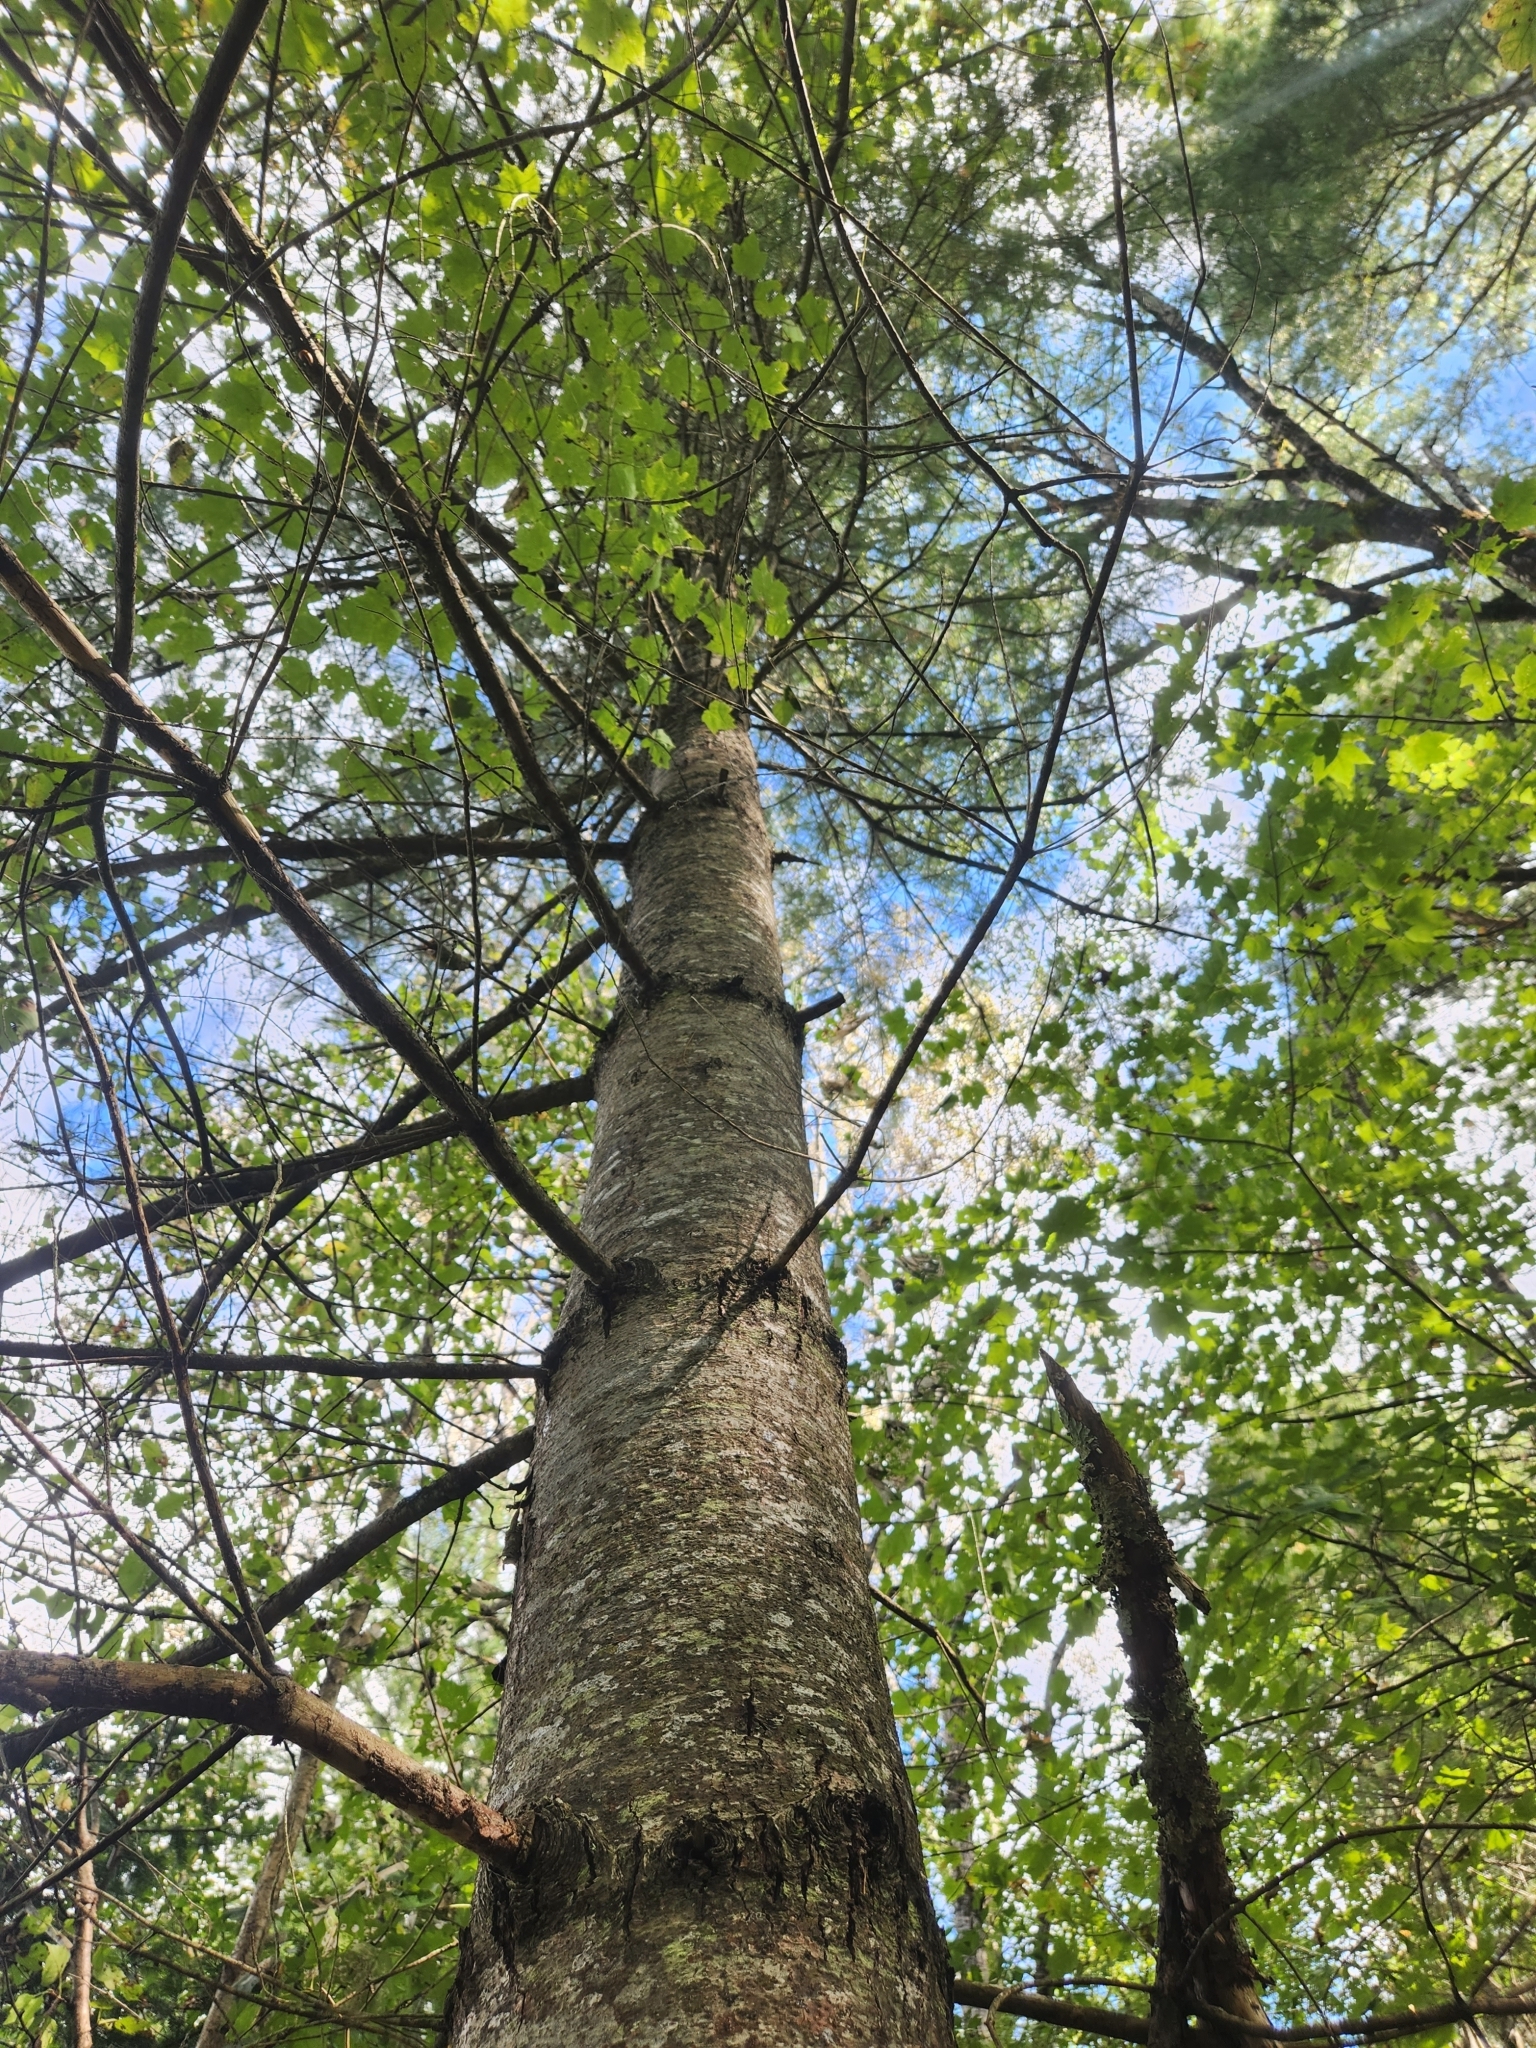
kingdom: Plantae
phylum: Tracheophyta
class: Pinopsida
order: Pinales
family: Pinaceae
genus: Pinus
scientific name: Pinus strobus
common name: Weymouth pine
